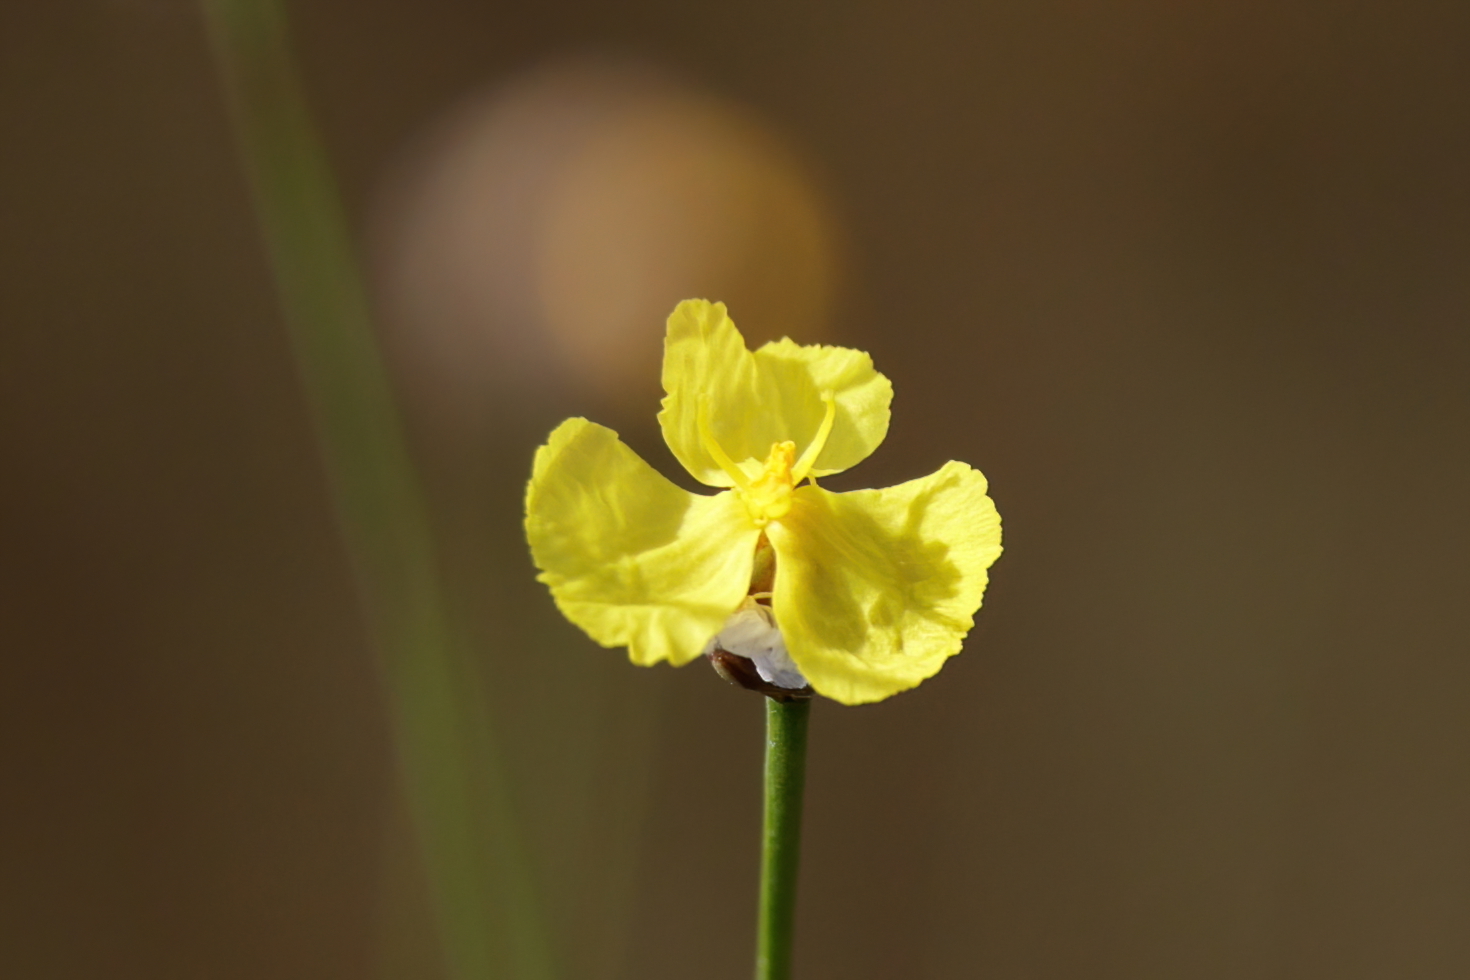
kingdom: Plantae
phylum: Tracheophyta
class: Liliopsida
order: Poales
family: Xyridaceae
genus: Xyris
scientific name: Xyris baldwiniana
